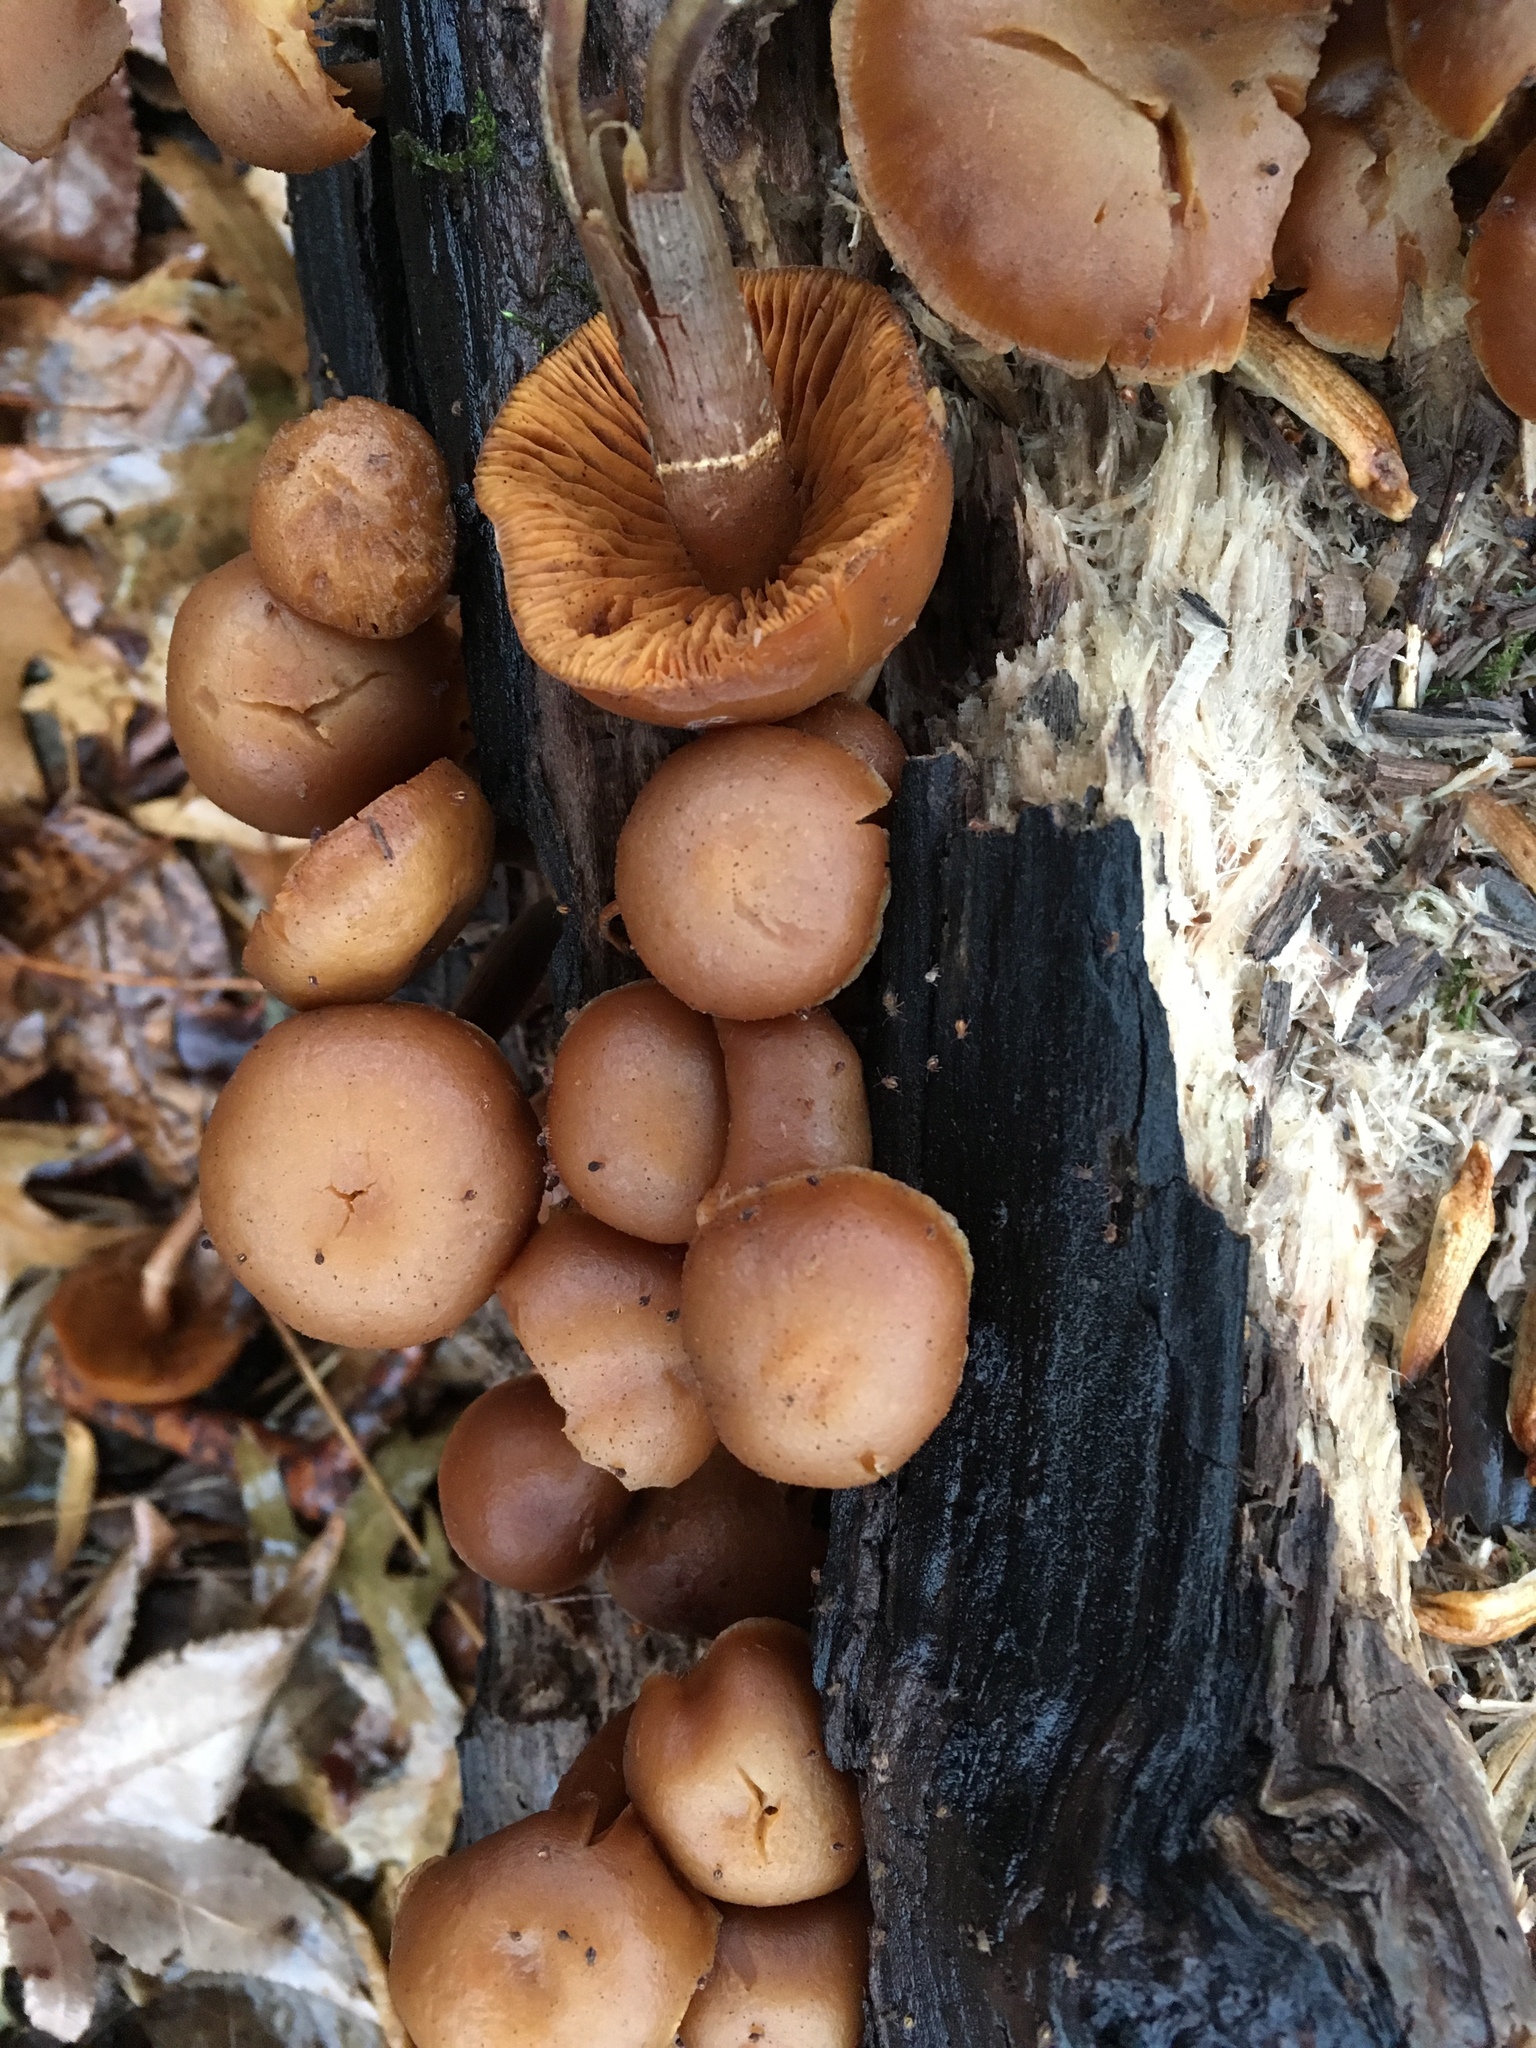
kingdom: Fungi
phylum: Basidiomycota
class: Agaricomycetes
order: Agaricales
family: Hymenogastraceae
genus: Galerina
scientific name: Galerina marginata
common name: Funeral bell
